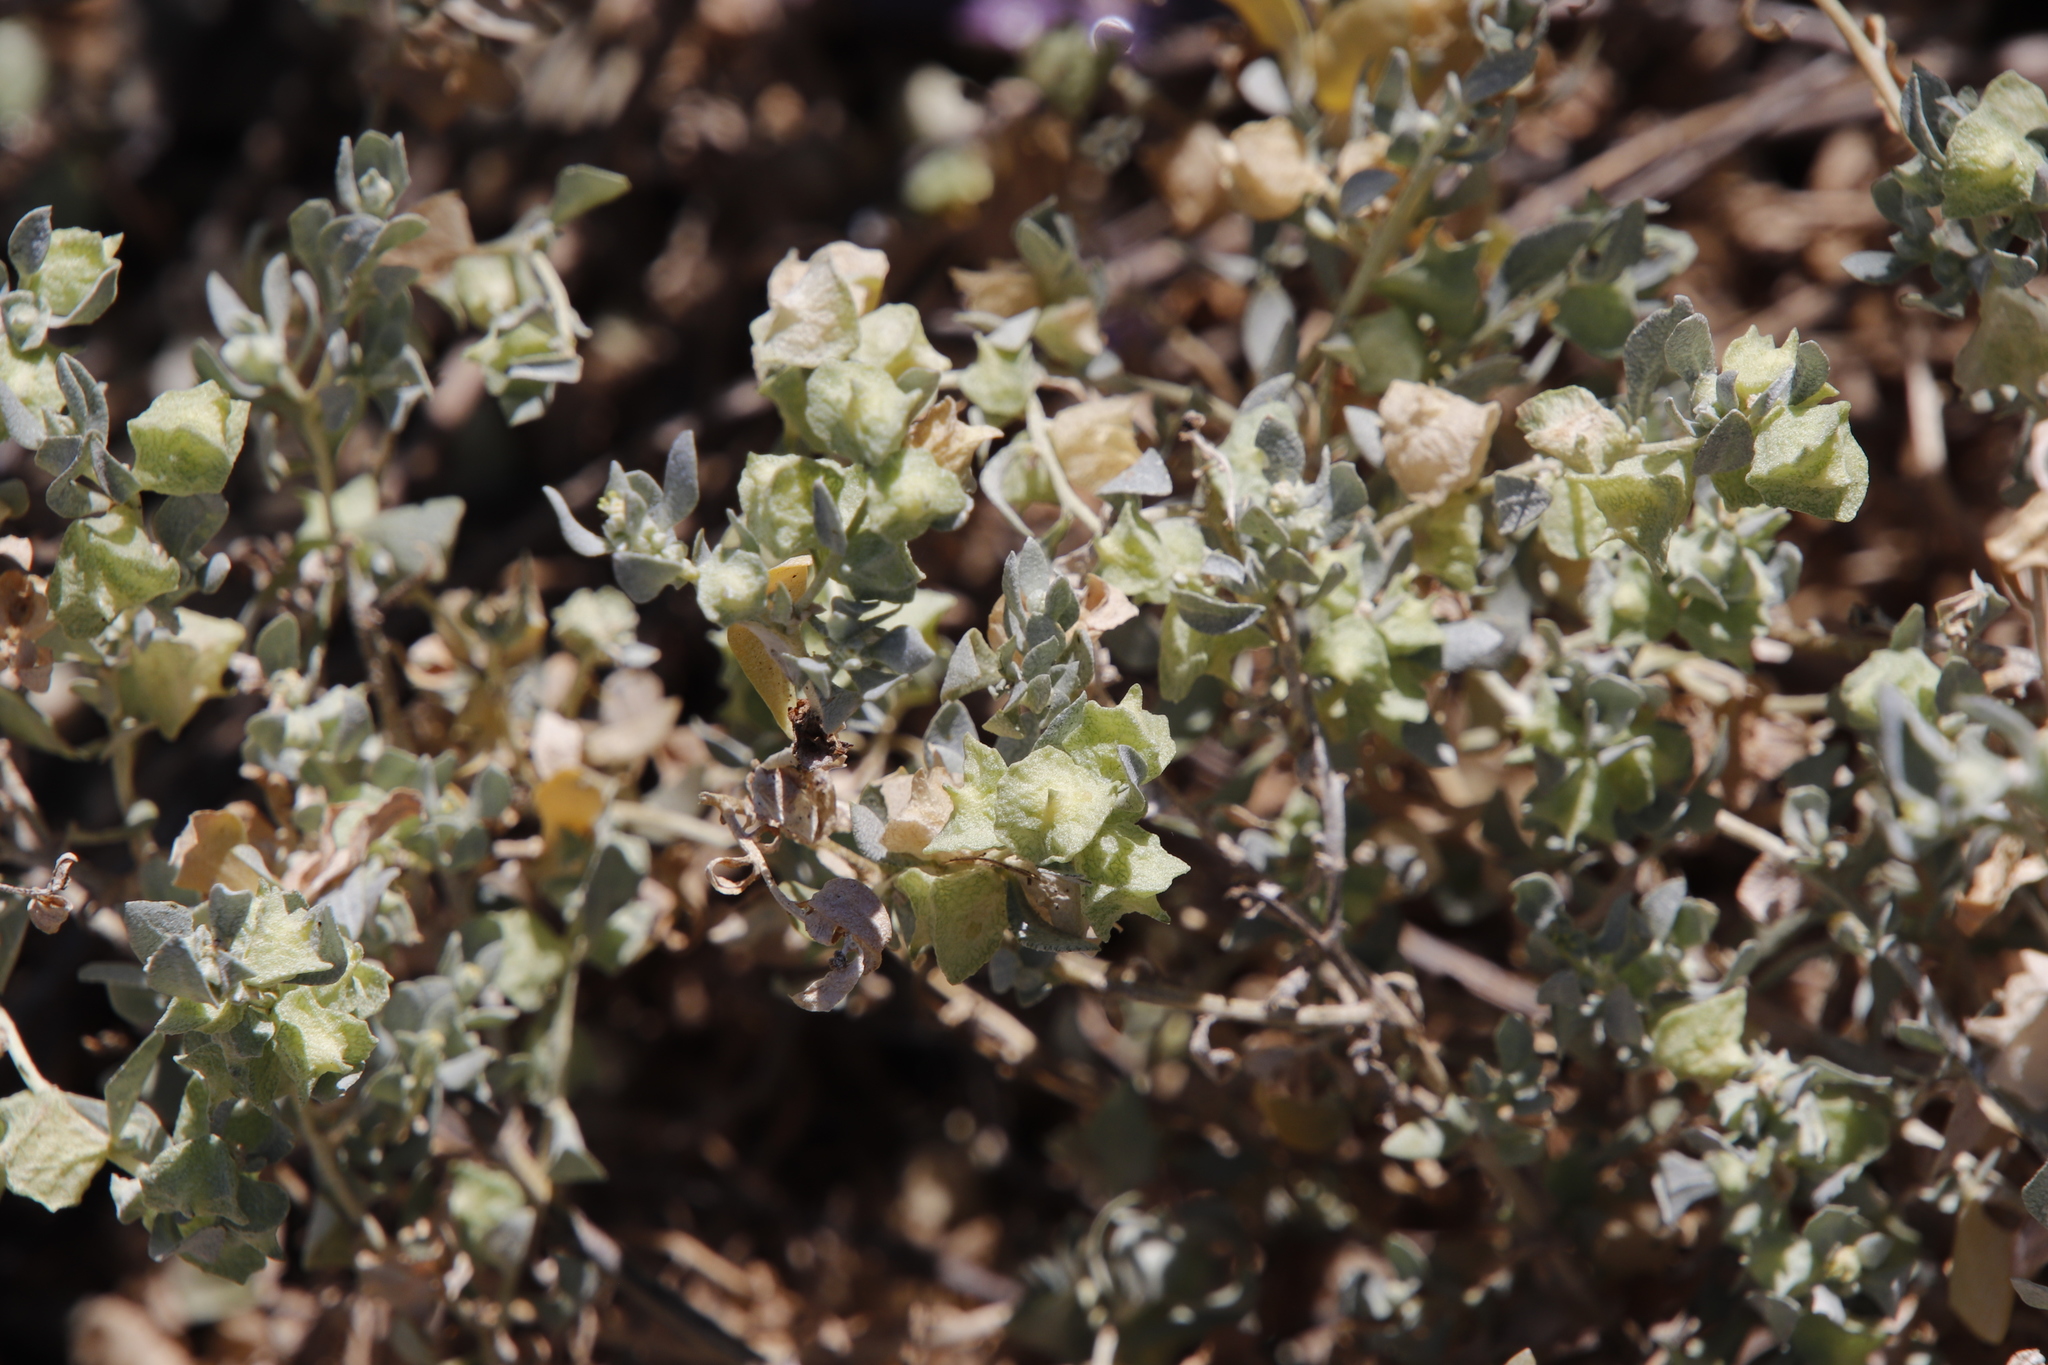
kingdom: Plantae
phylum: Tracheophyta
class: Magnoliopsida
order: Caryophyllales
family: Amaranthaceae
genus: Atriplex
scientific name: Atriplex lindleyi
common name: Lindley's saltbush
